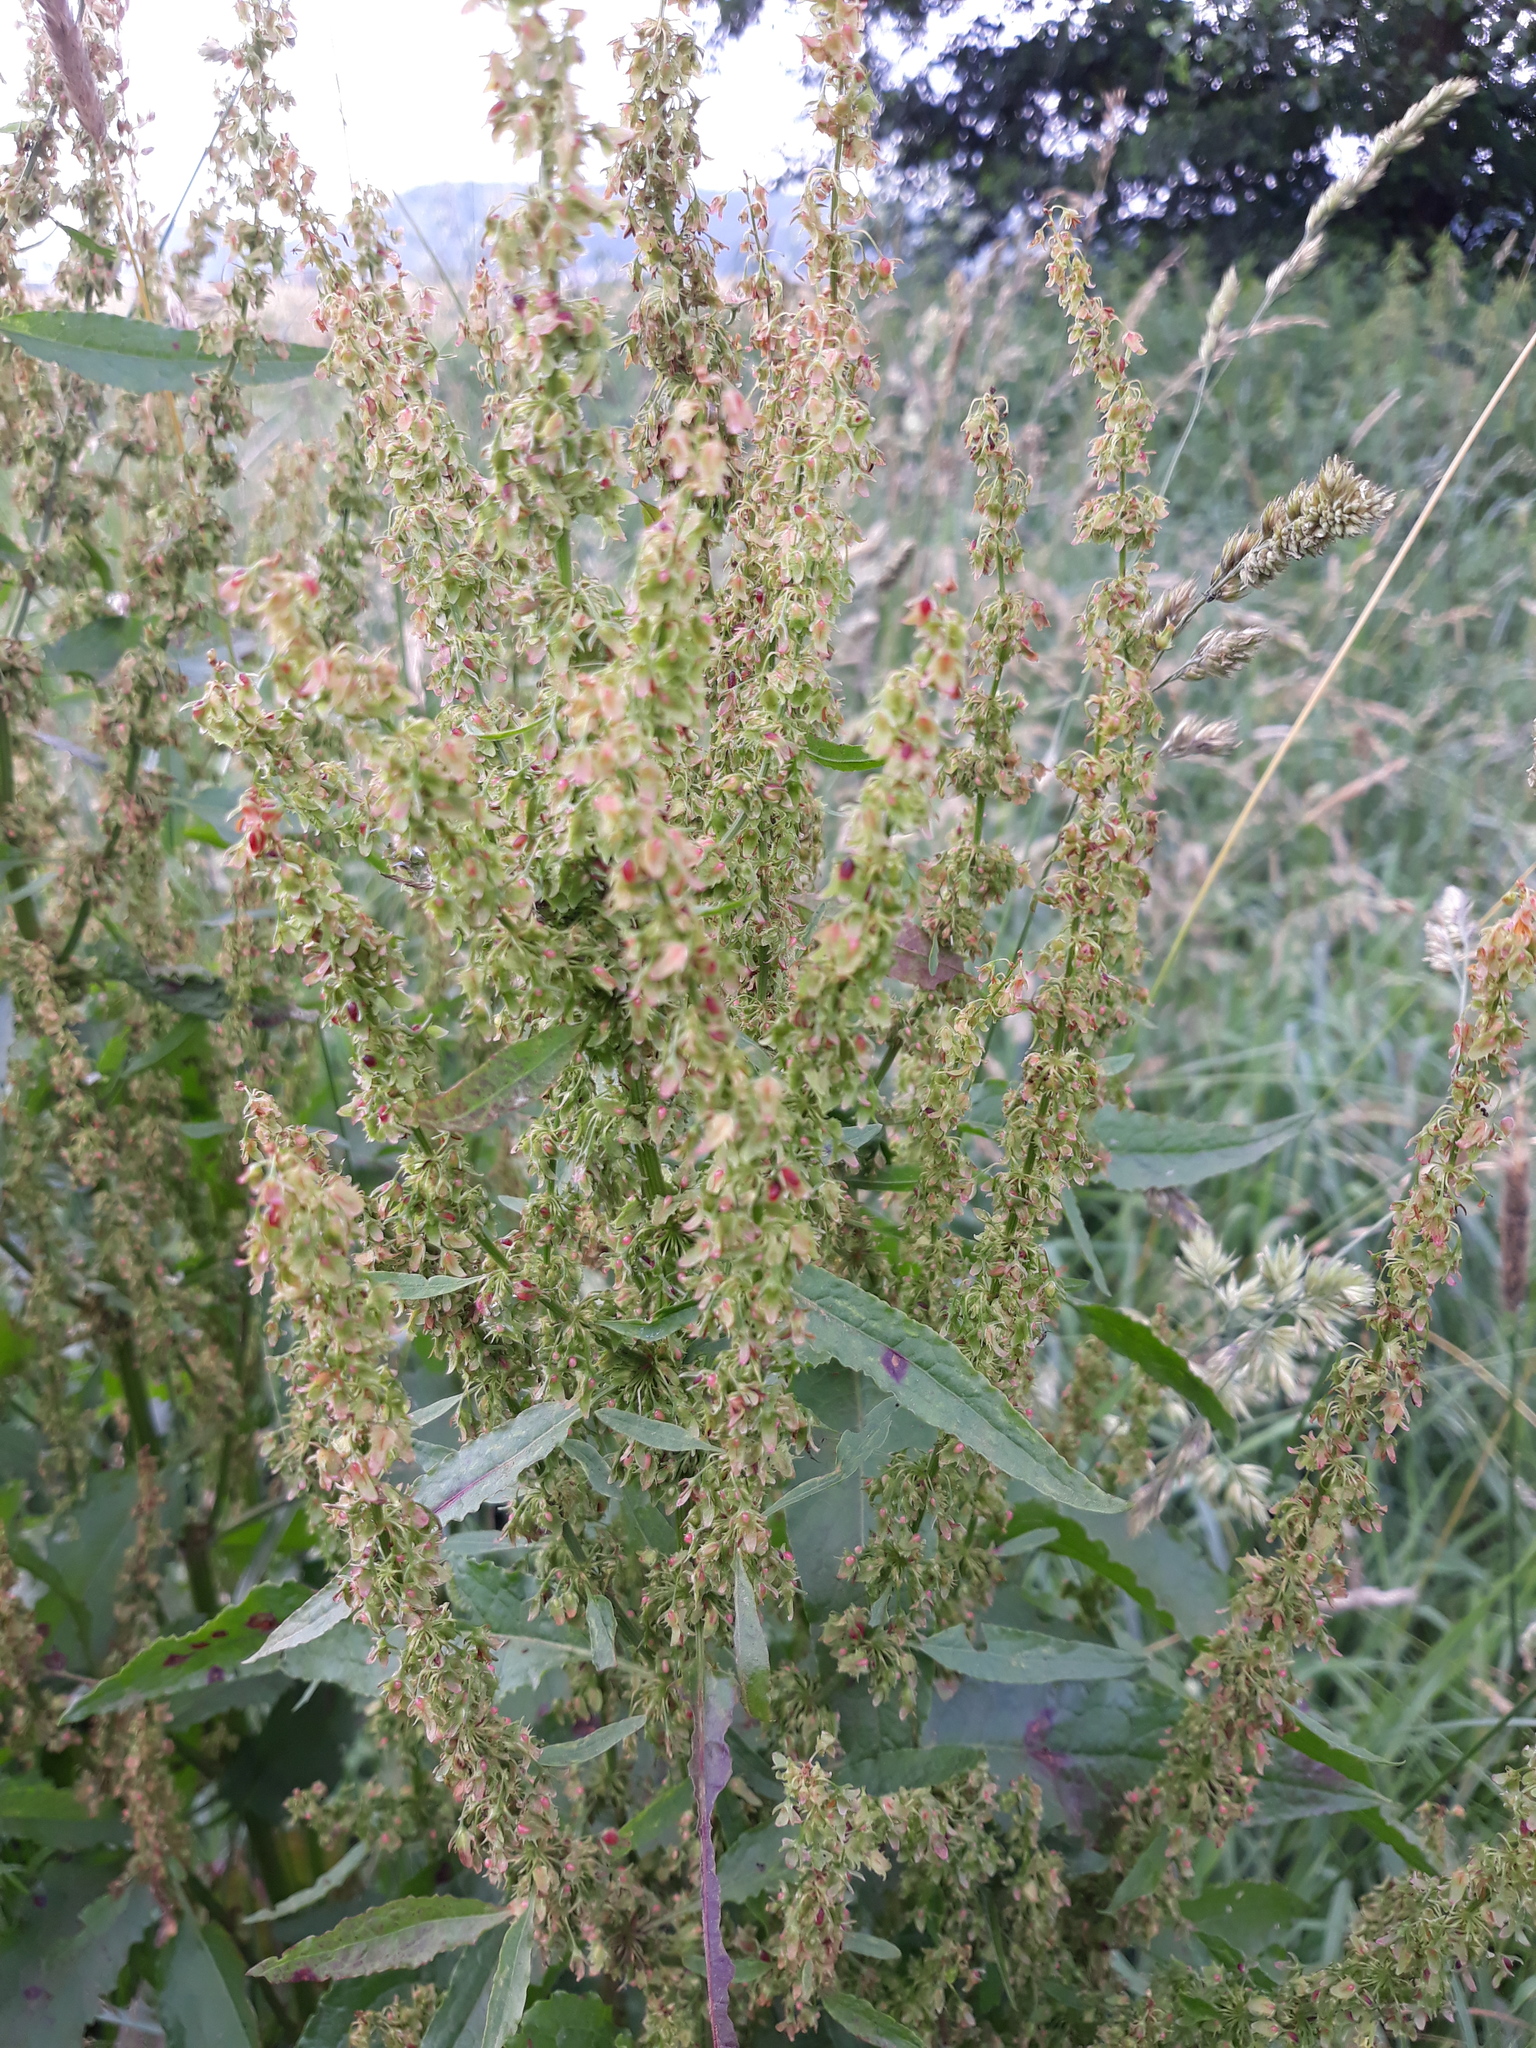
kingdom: Plantae
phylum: Tracheophyta
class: Magnoliopsida
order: Caryophyllales
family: Polygonaceae
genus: Rumex
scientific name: Rumex obtusifolius
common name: Bitter dock
